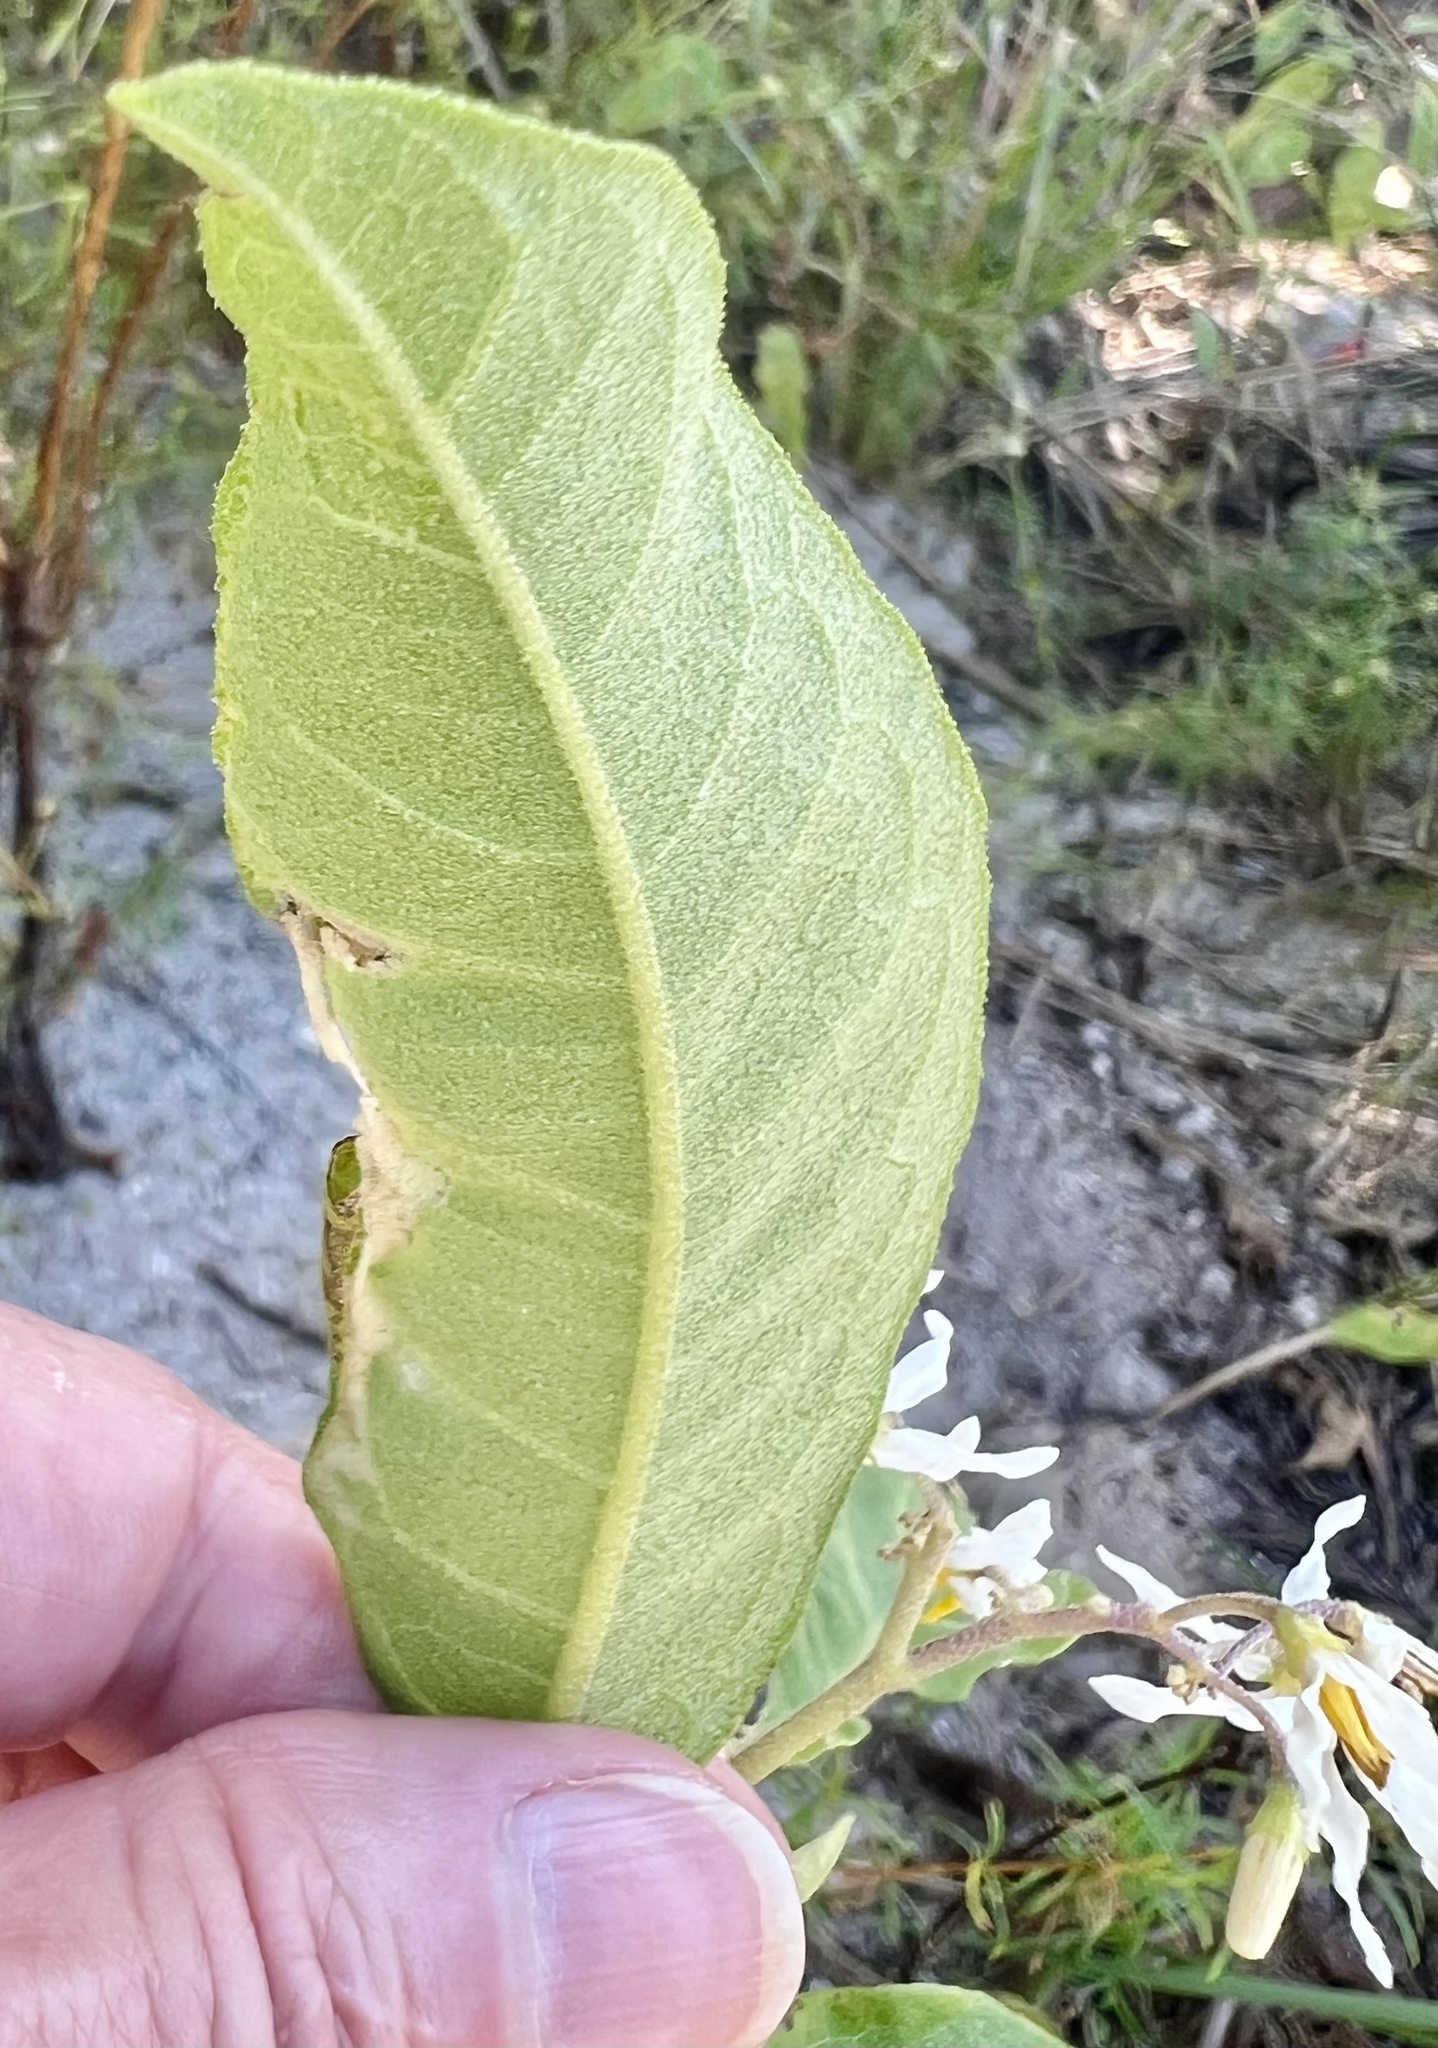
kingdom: Plantae
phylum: Tracheophyta
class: Magnoliopsida
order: Solanales
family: Solanaceae
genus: Solanum
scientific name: Solanum donianum
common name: Mullein nightshade
